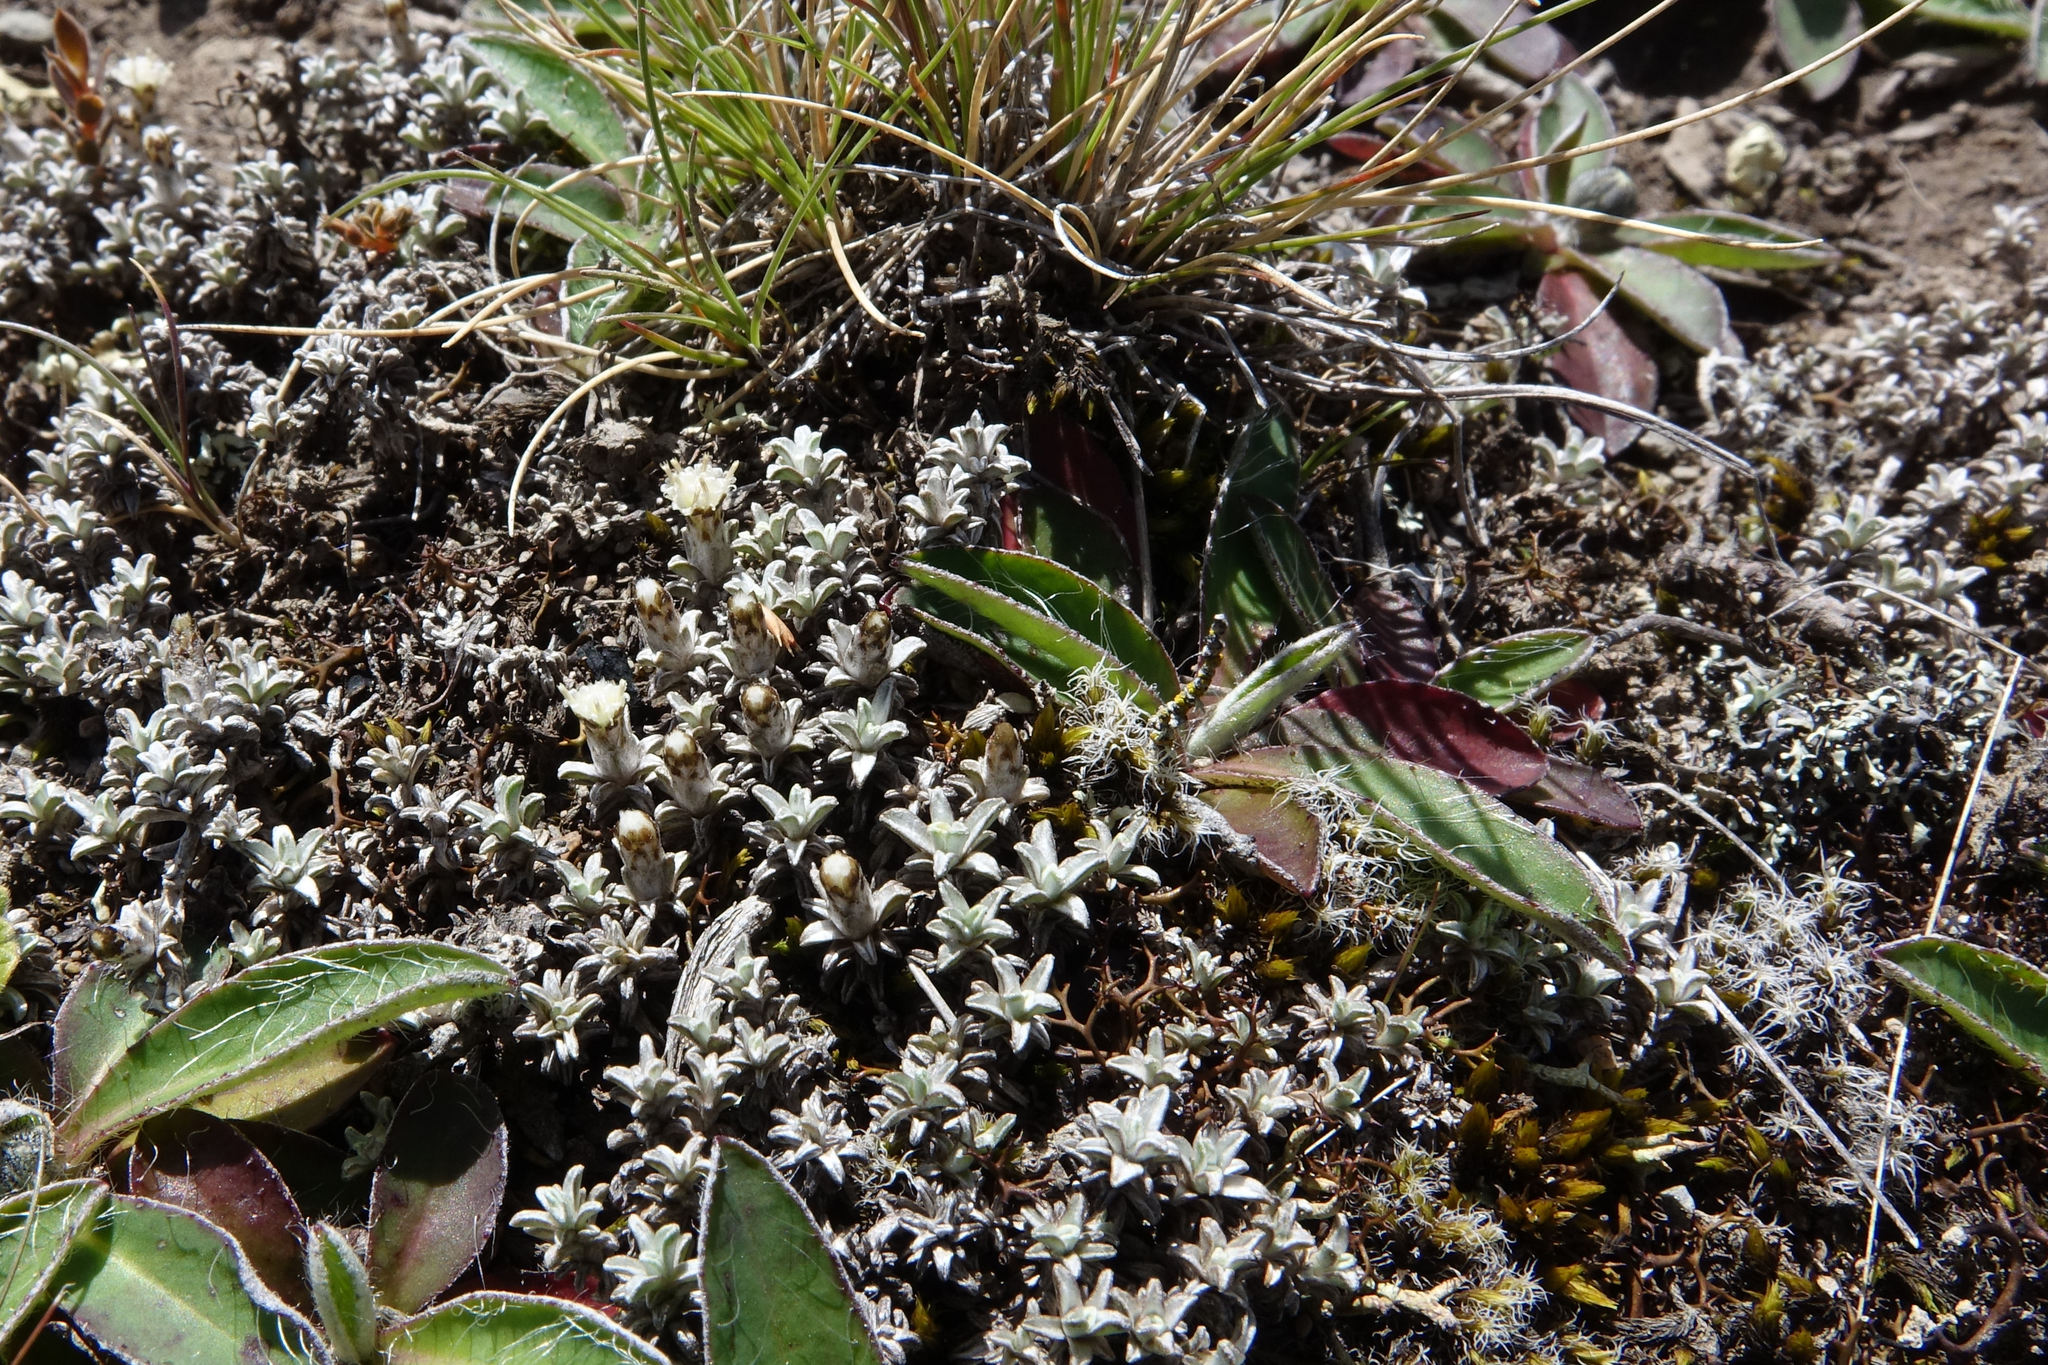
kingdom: Plantae
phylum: Tracheophyta
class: Magnoliopsida
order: Asterales
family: Asteraceae
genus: Raoulia
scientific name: Raoulia beauverdii
